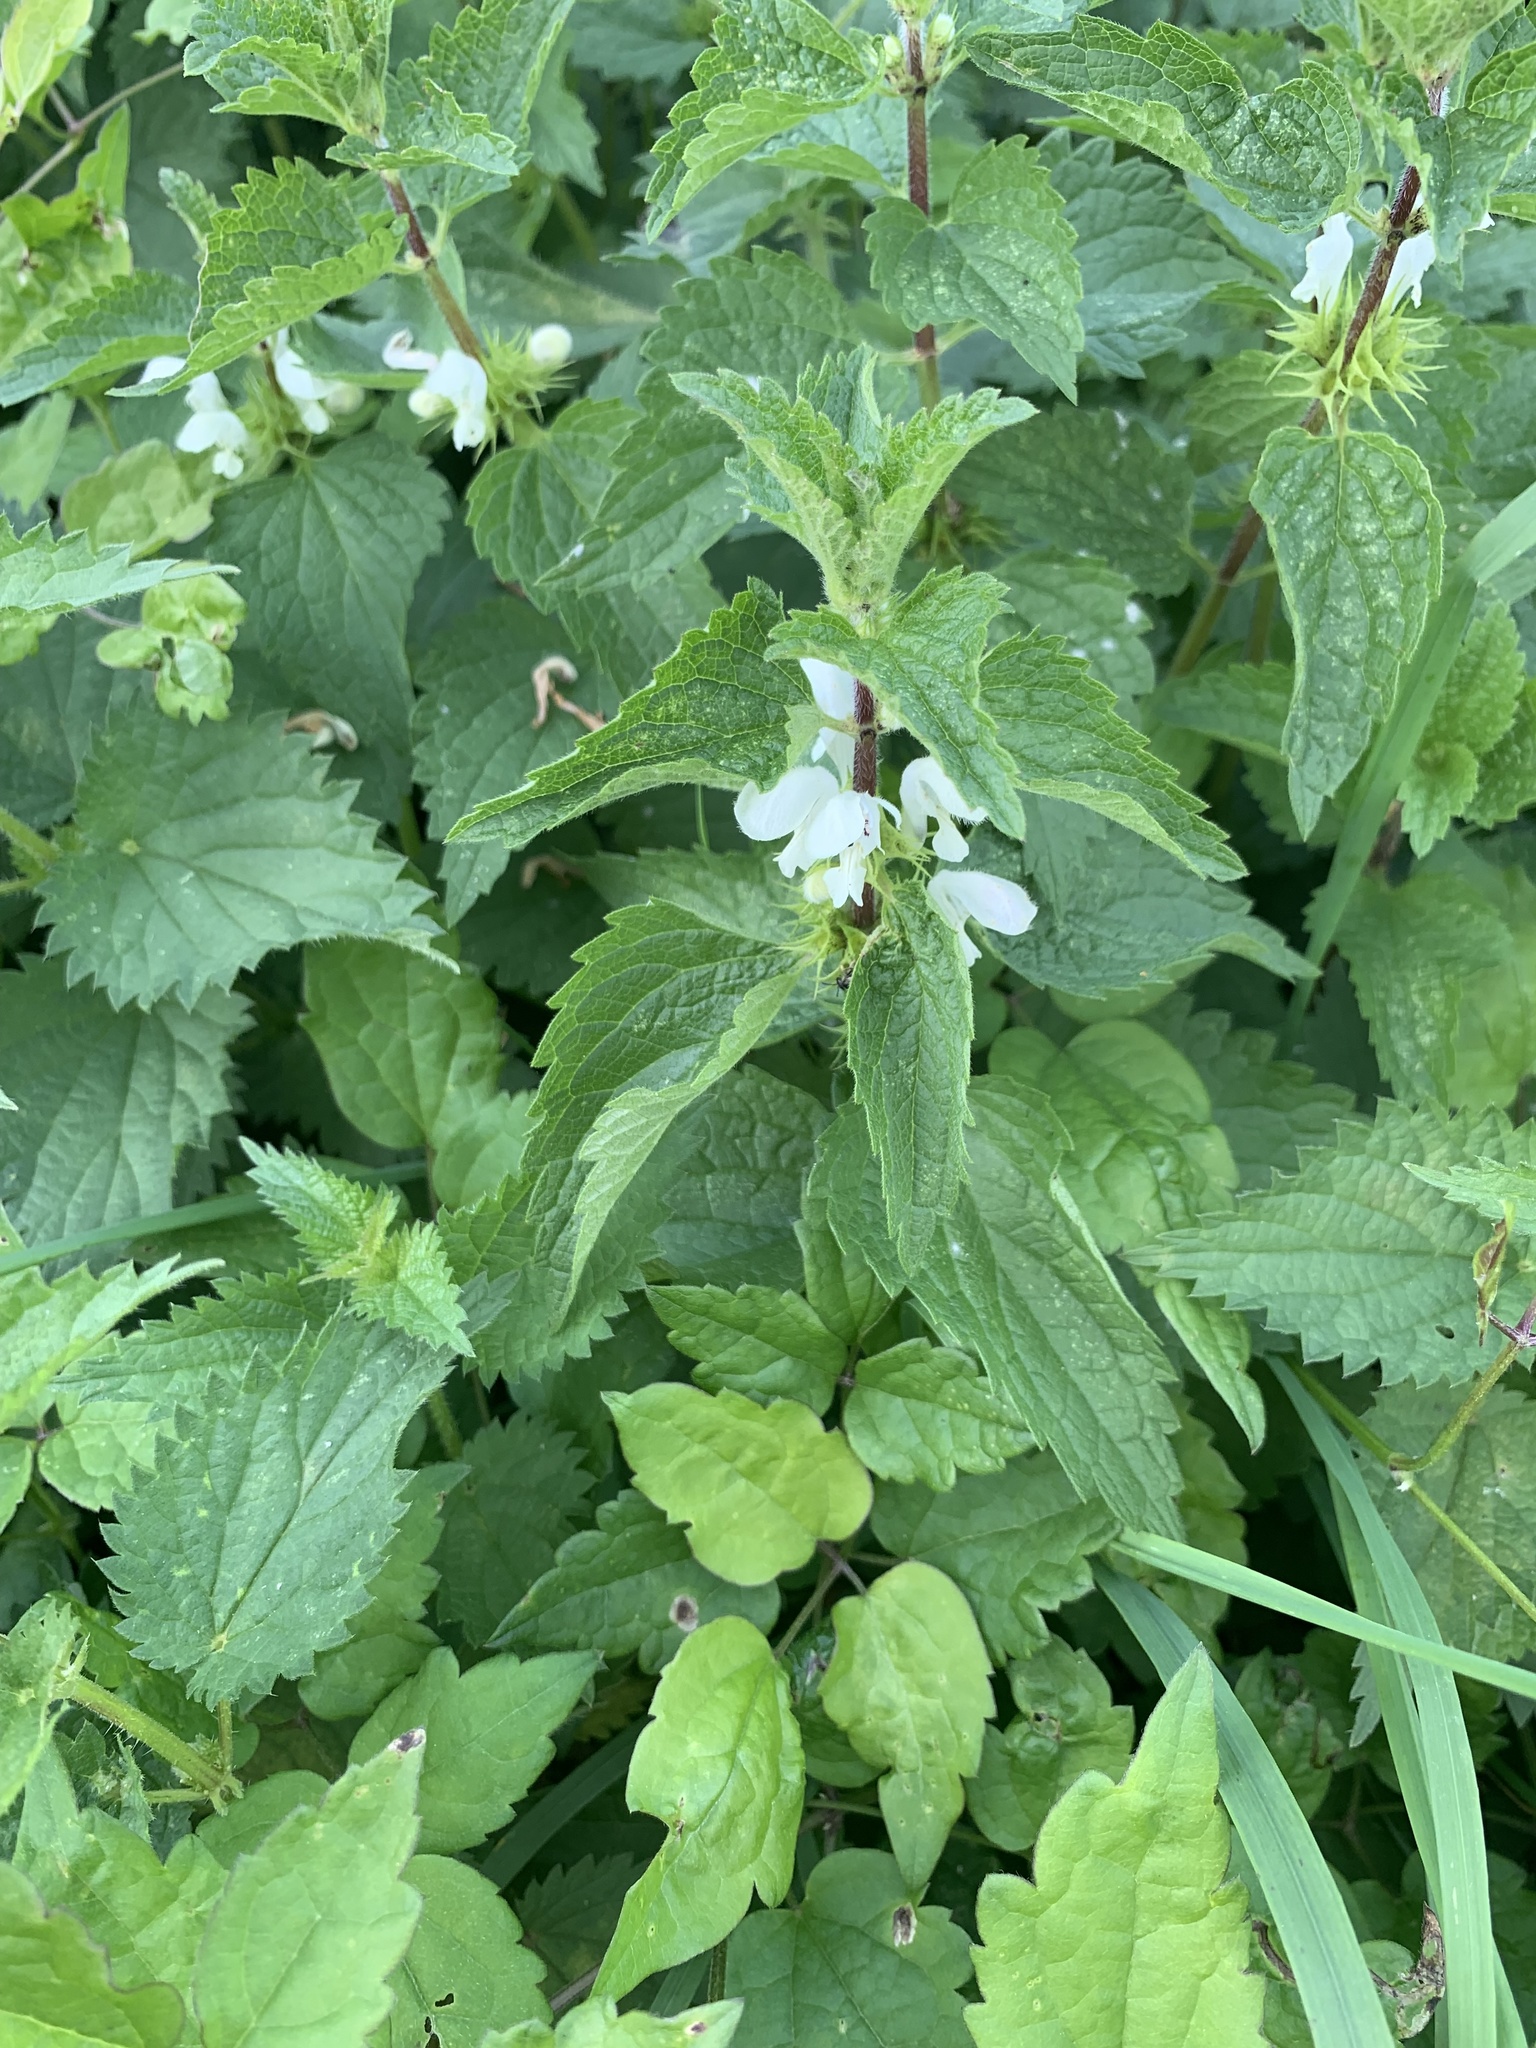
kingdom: Plantae
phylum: Tracheophyta
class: Magnoliopsida
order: Lamiales
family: Lamiaceae
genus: Lamium
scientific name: Lamium album
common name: White dead-nettle
